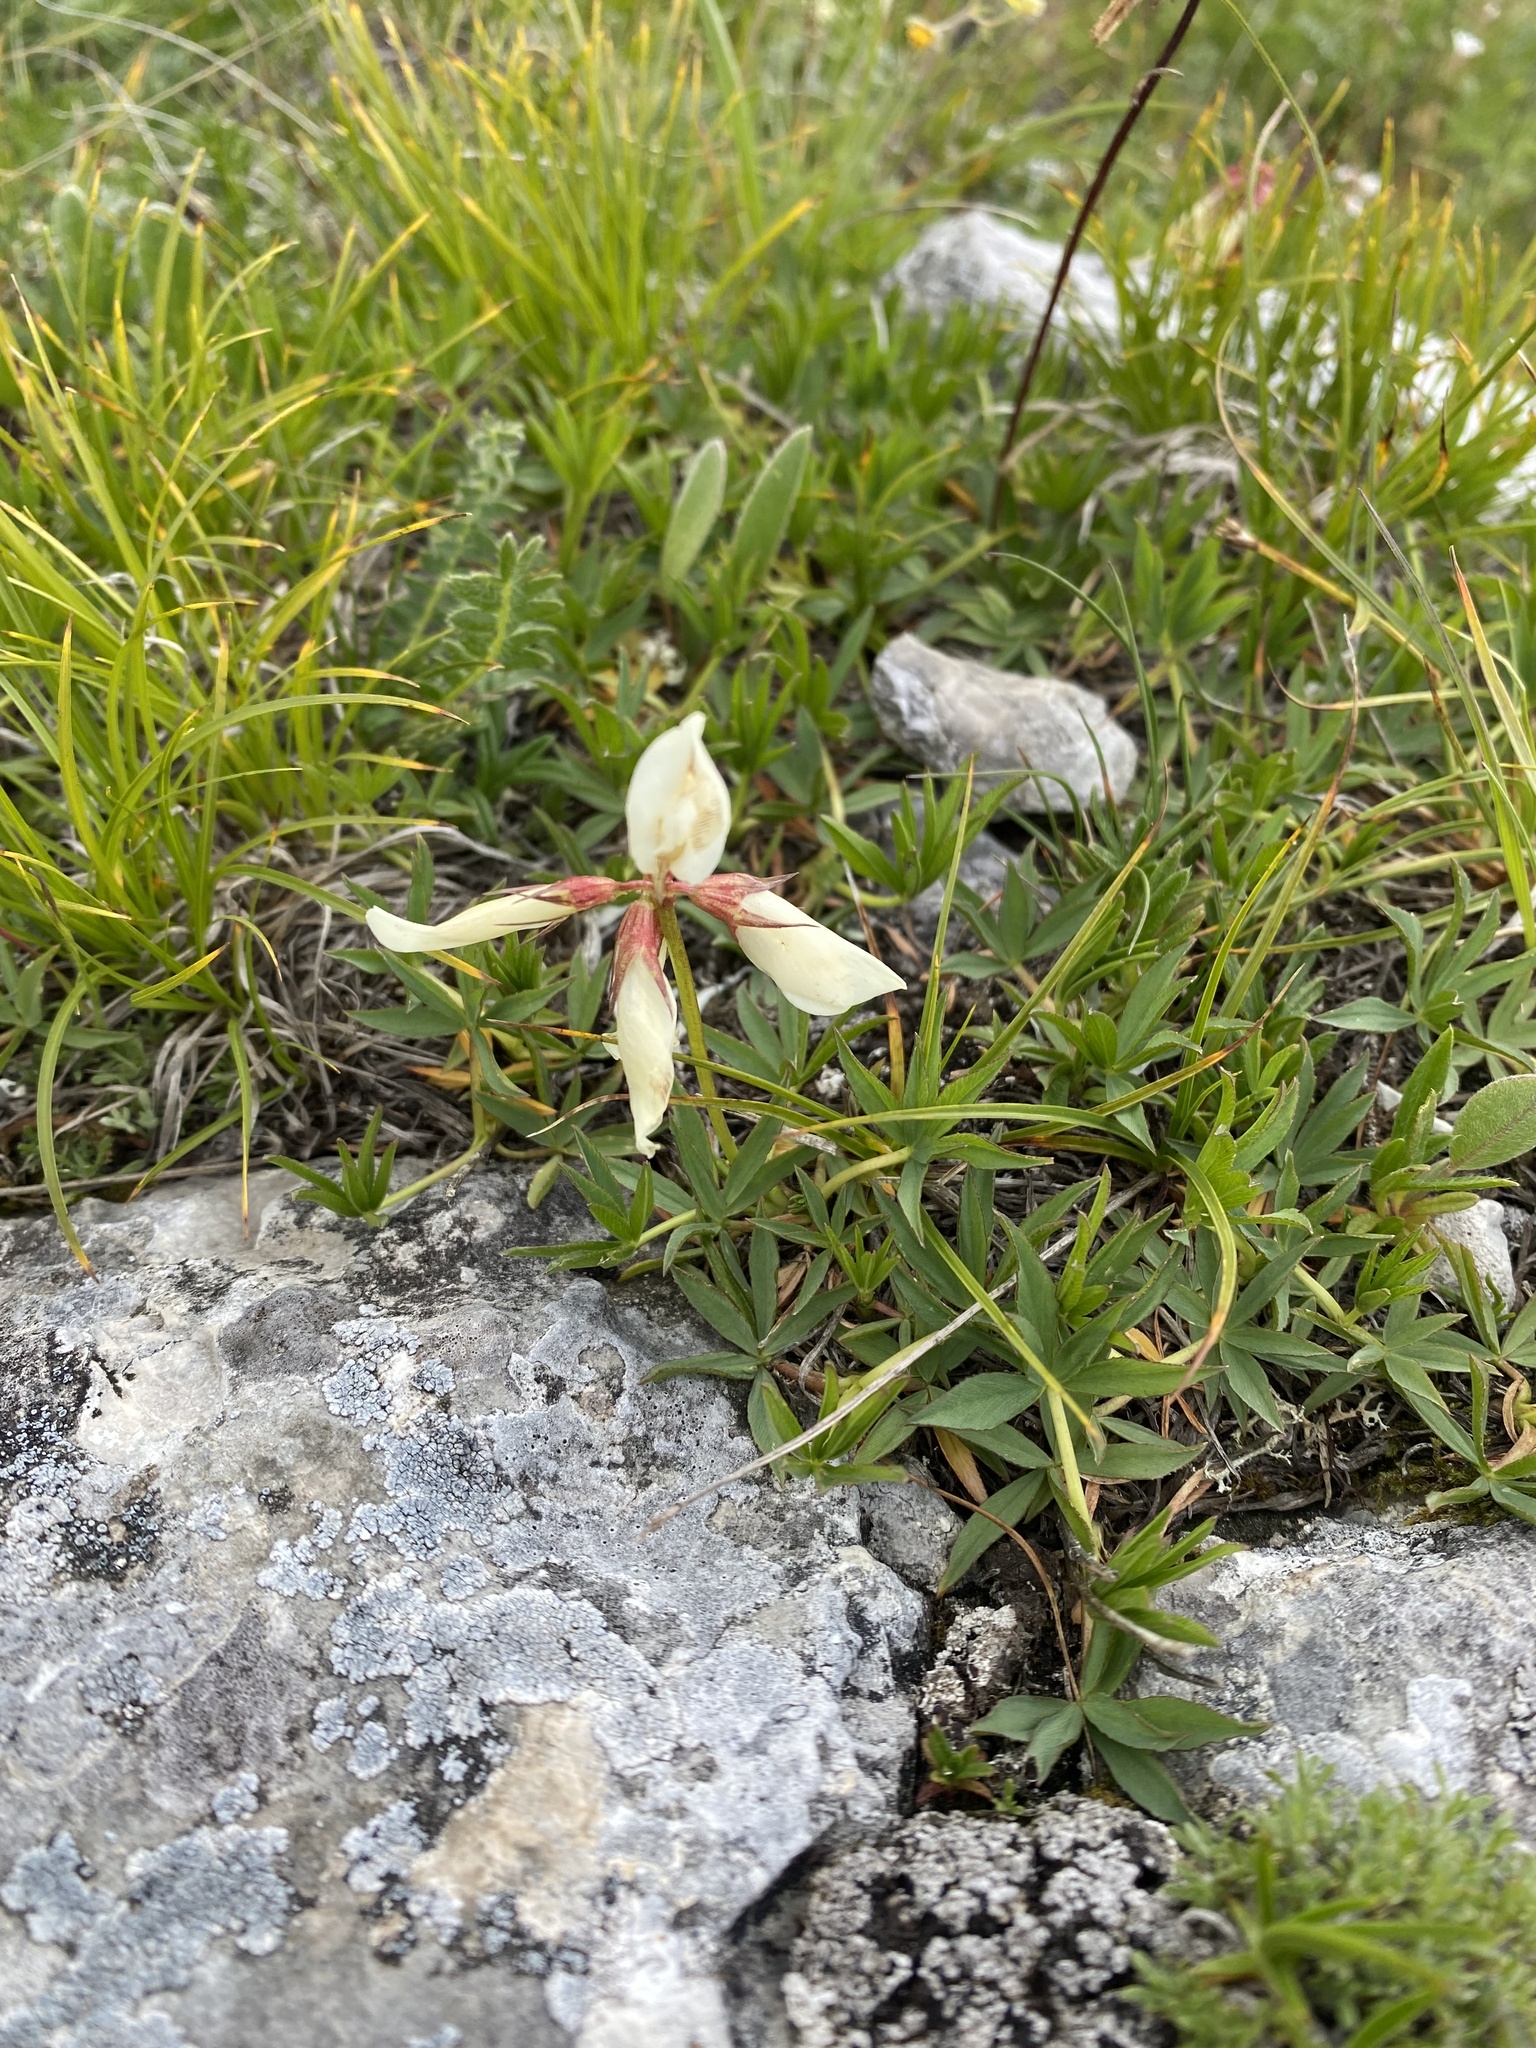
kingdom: Plantae
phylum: Tracheophyta
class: Magnoliopsida
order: Fabales
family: Fabaceae
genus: Trifolium
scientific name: Trifolium polyphyllum
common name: Many-leaf clover
